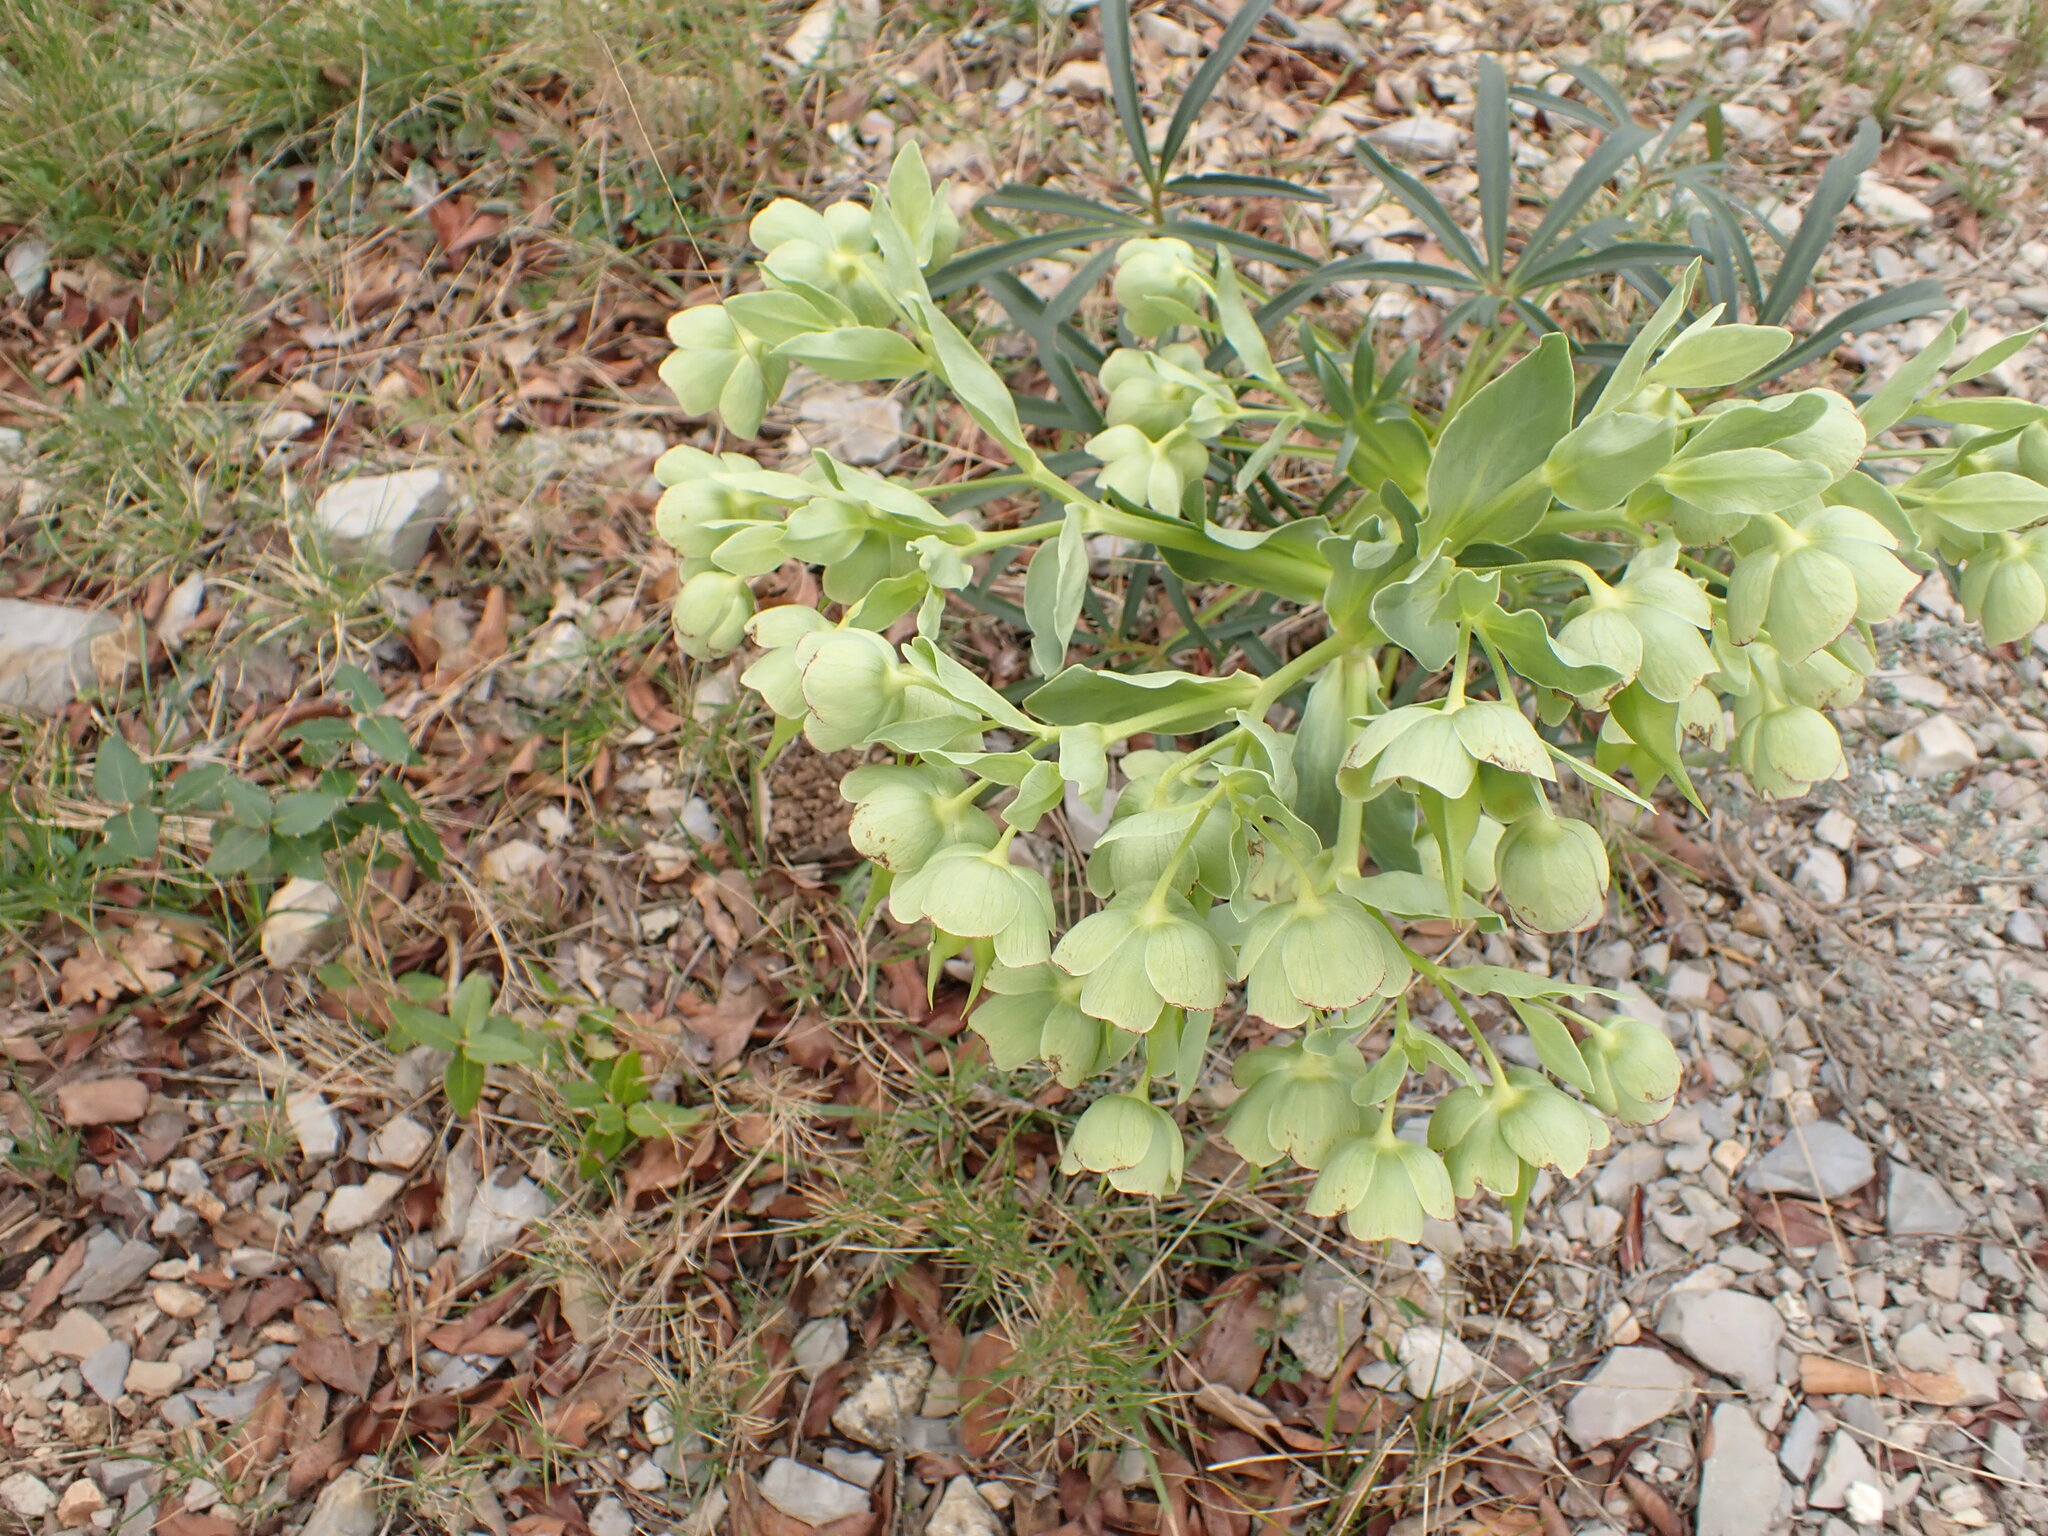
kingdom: Plantae
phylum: Tracheophyta
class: Magnoliopsida
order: Ranunculales
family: Ranunculaceae
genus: Helleborus
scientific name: Helleborus foetidus
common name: Stinking hellebore
